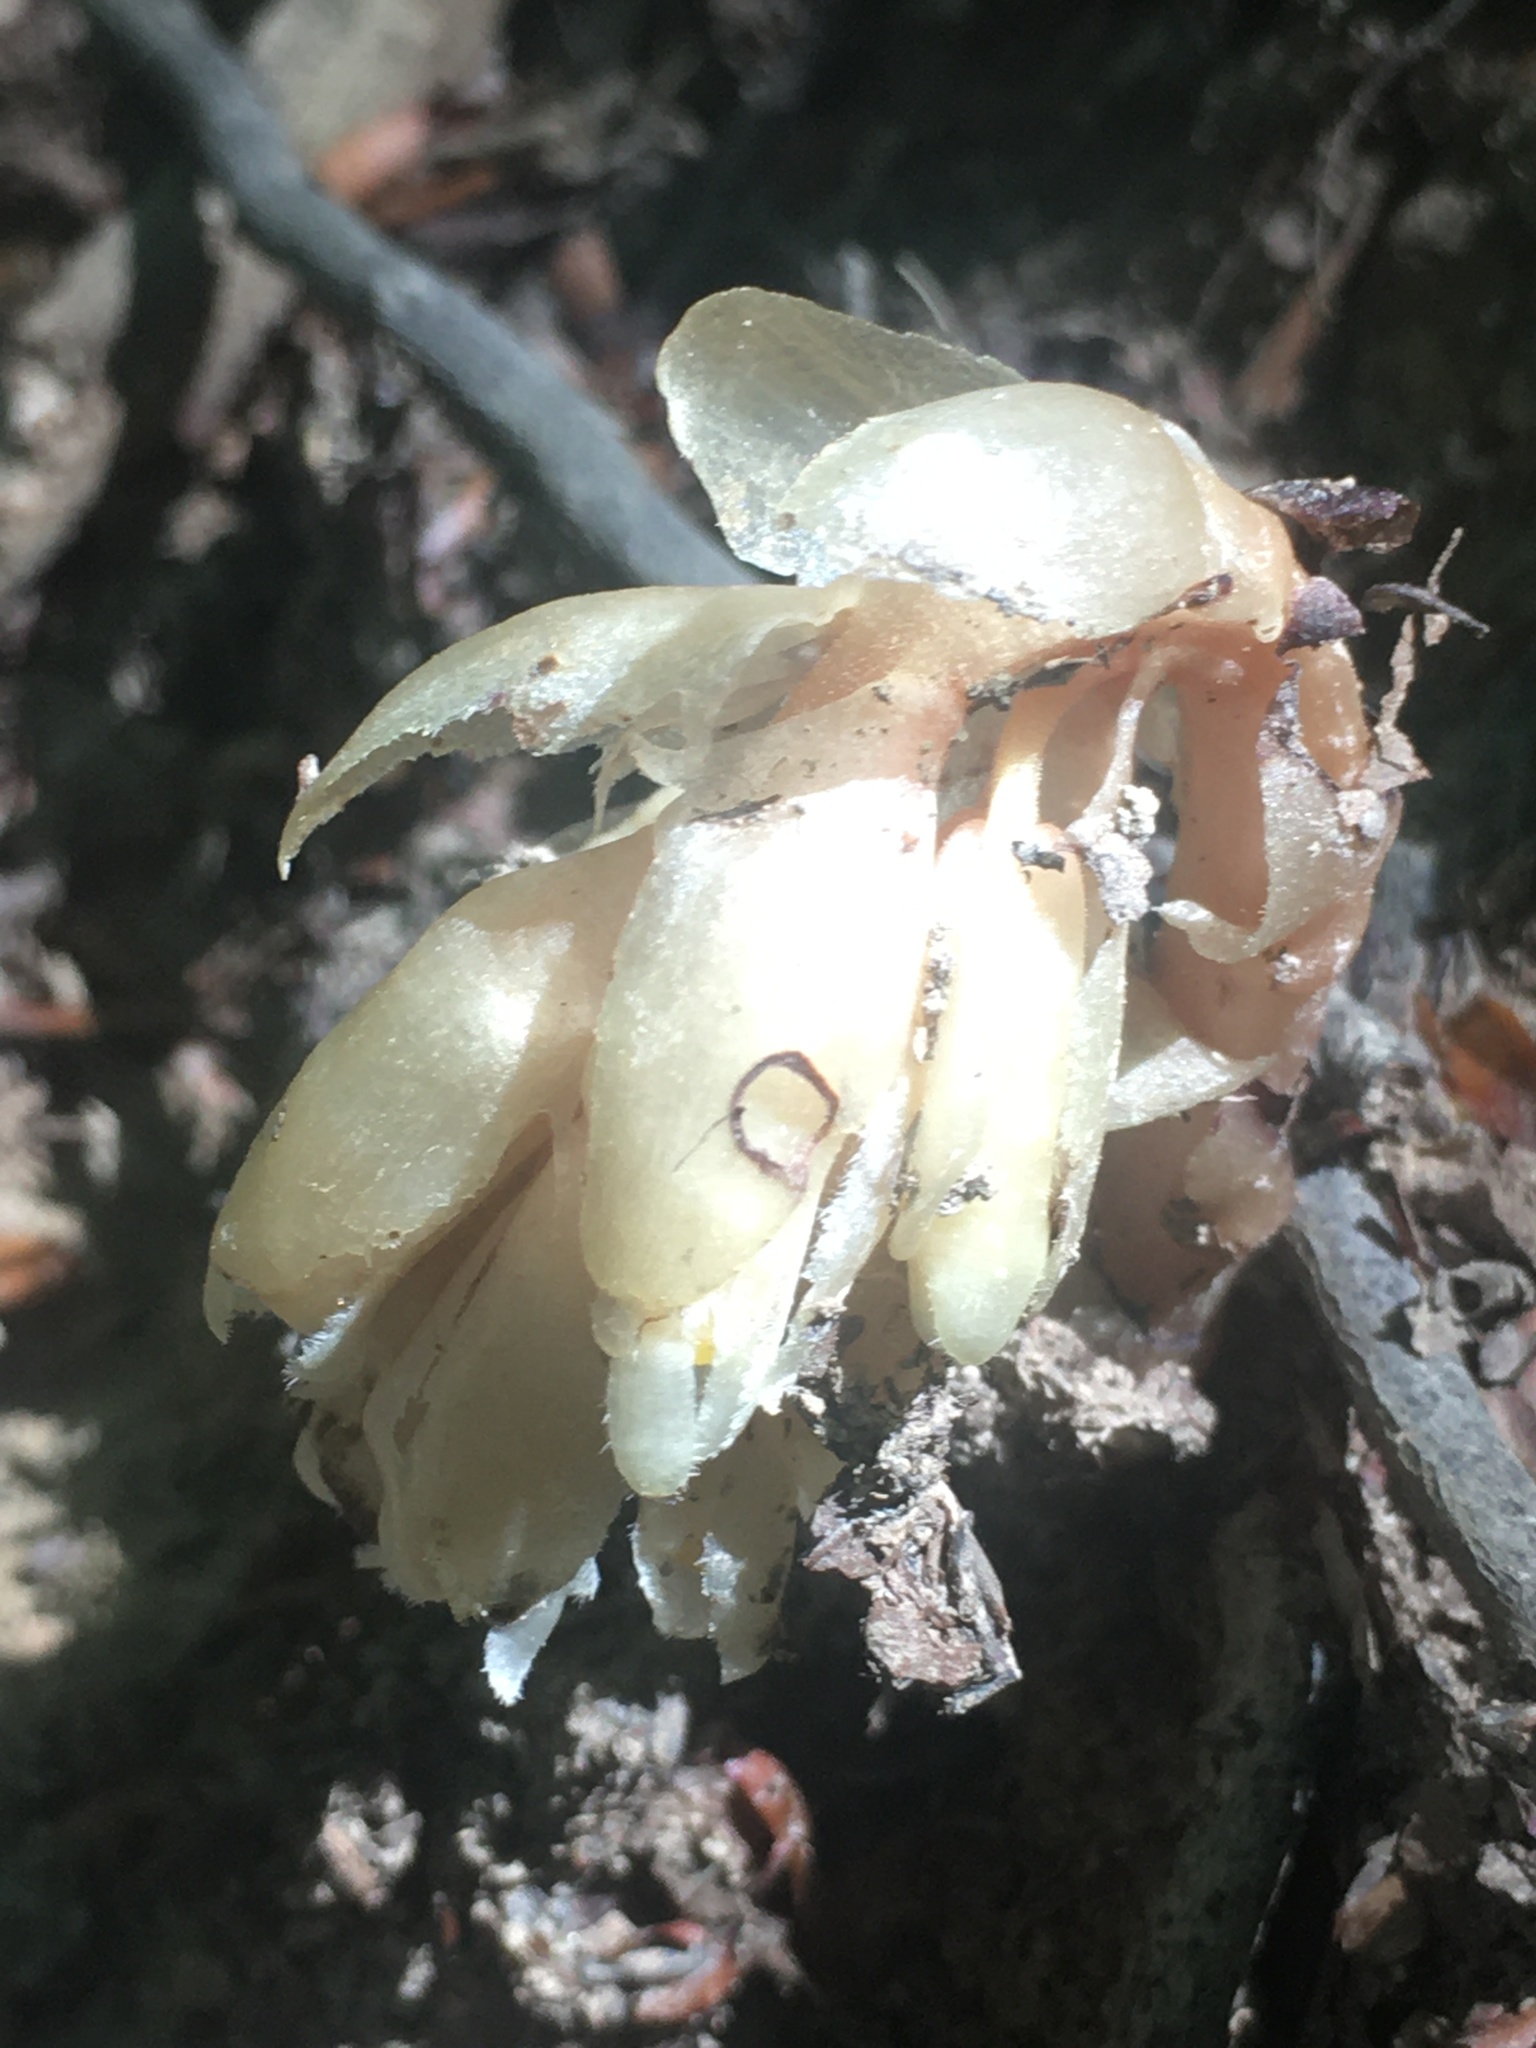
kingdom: Plantae
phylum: Tracheophyta
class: Magnoliopsida
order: Ericales
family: Ericaceae
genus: Hypopitys
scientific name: Hypopitys monotropa
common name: Yellow bird's-nest
